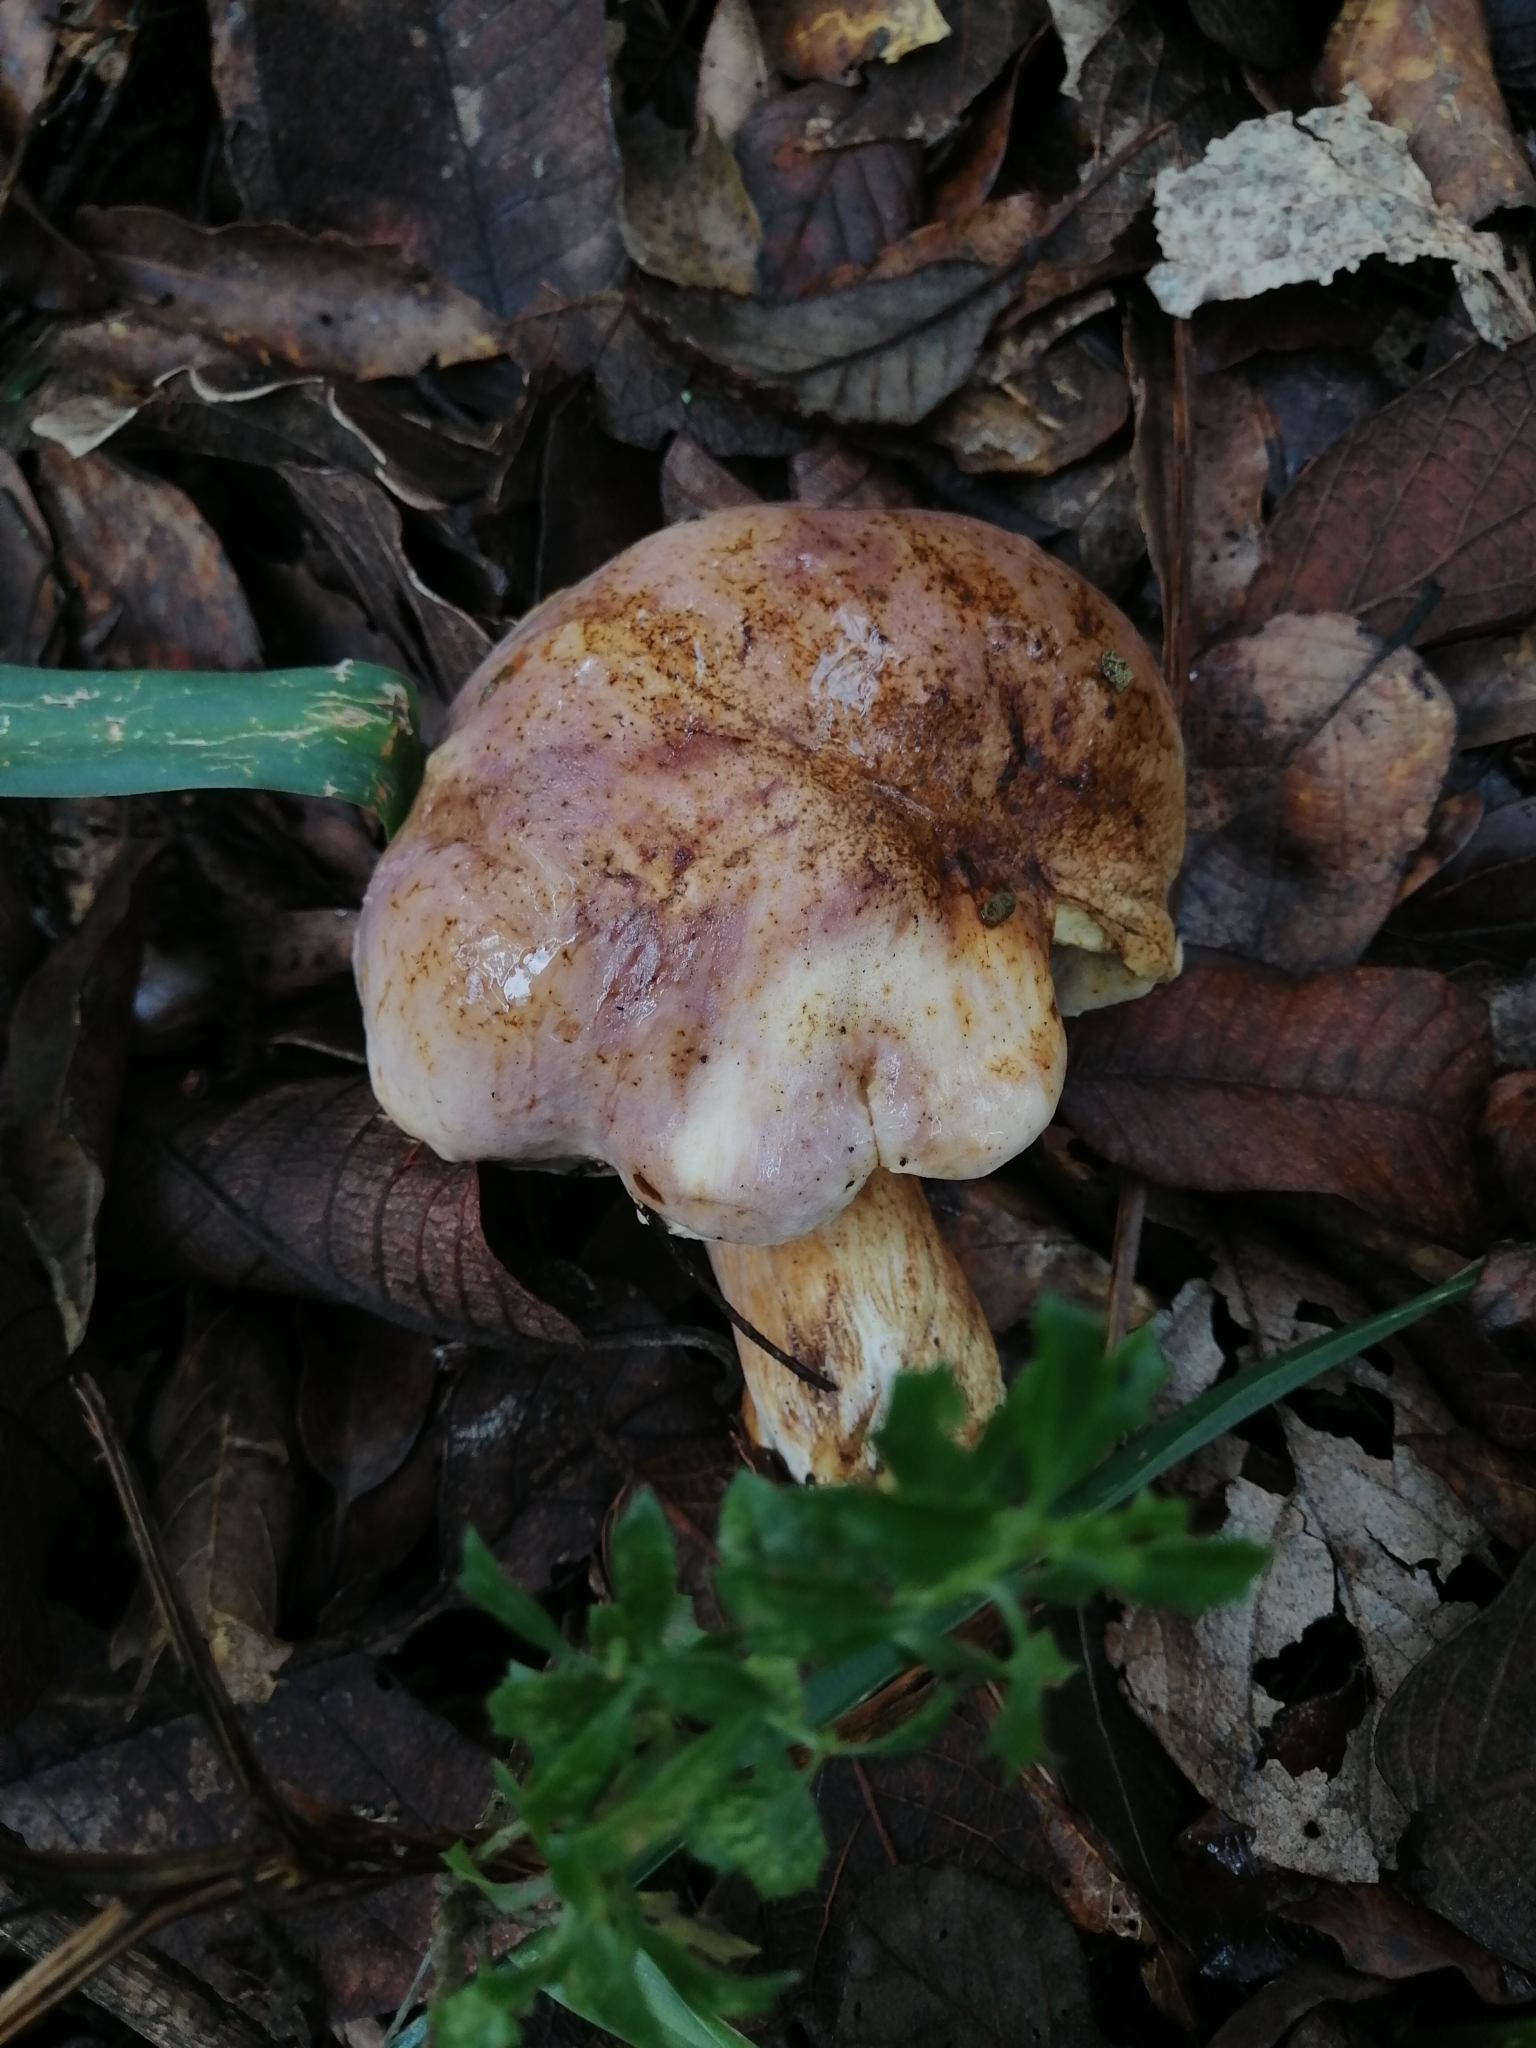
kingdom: Fungi
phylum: Basidiomycota
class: Agaricomycetes
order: Boletales
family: Boletaceae
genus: Tylopilus
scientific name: Tylopilus rubrobrunneus
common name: Reddish brown bitter bolete
